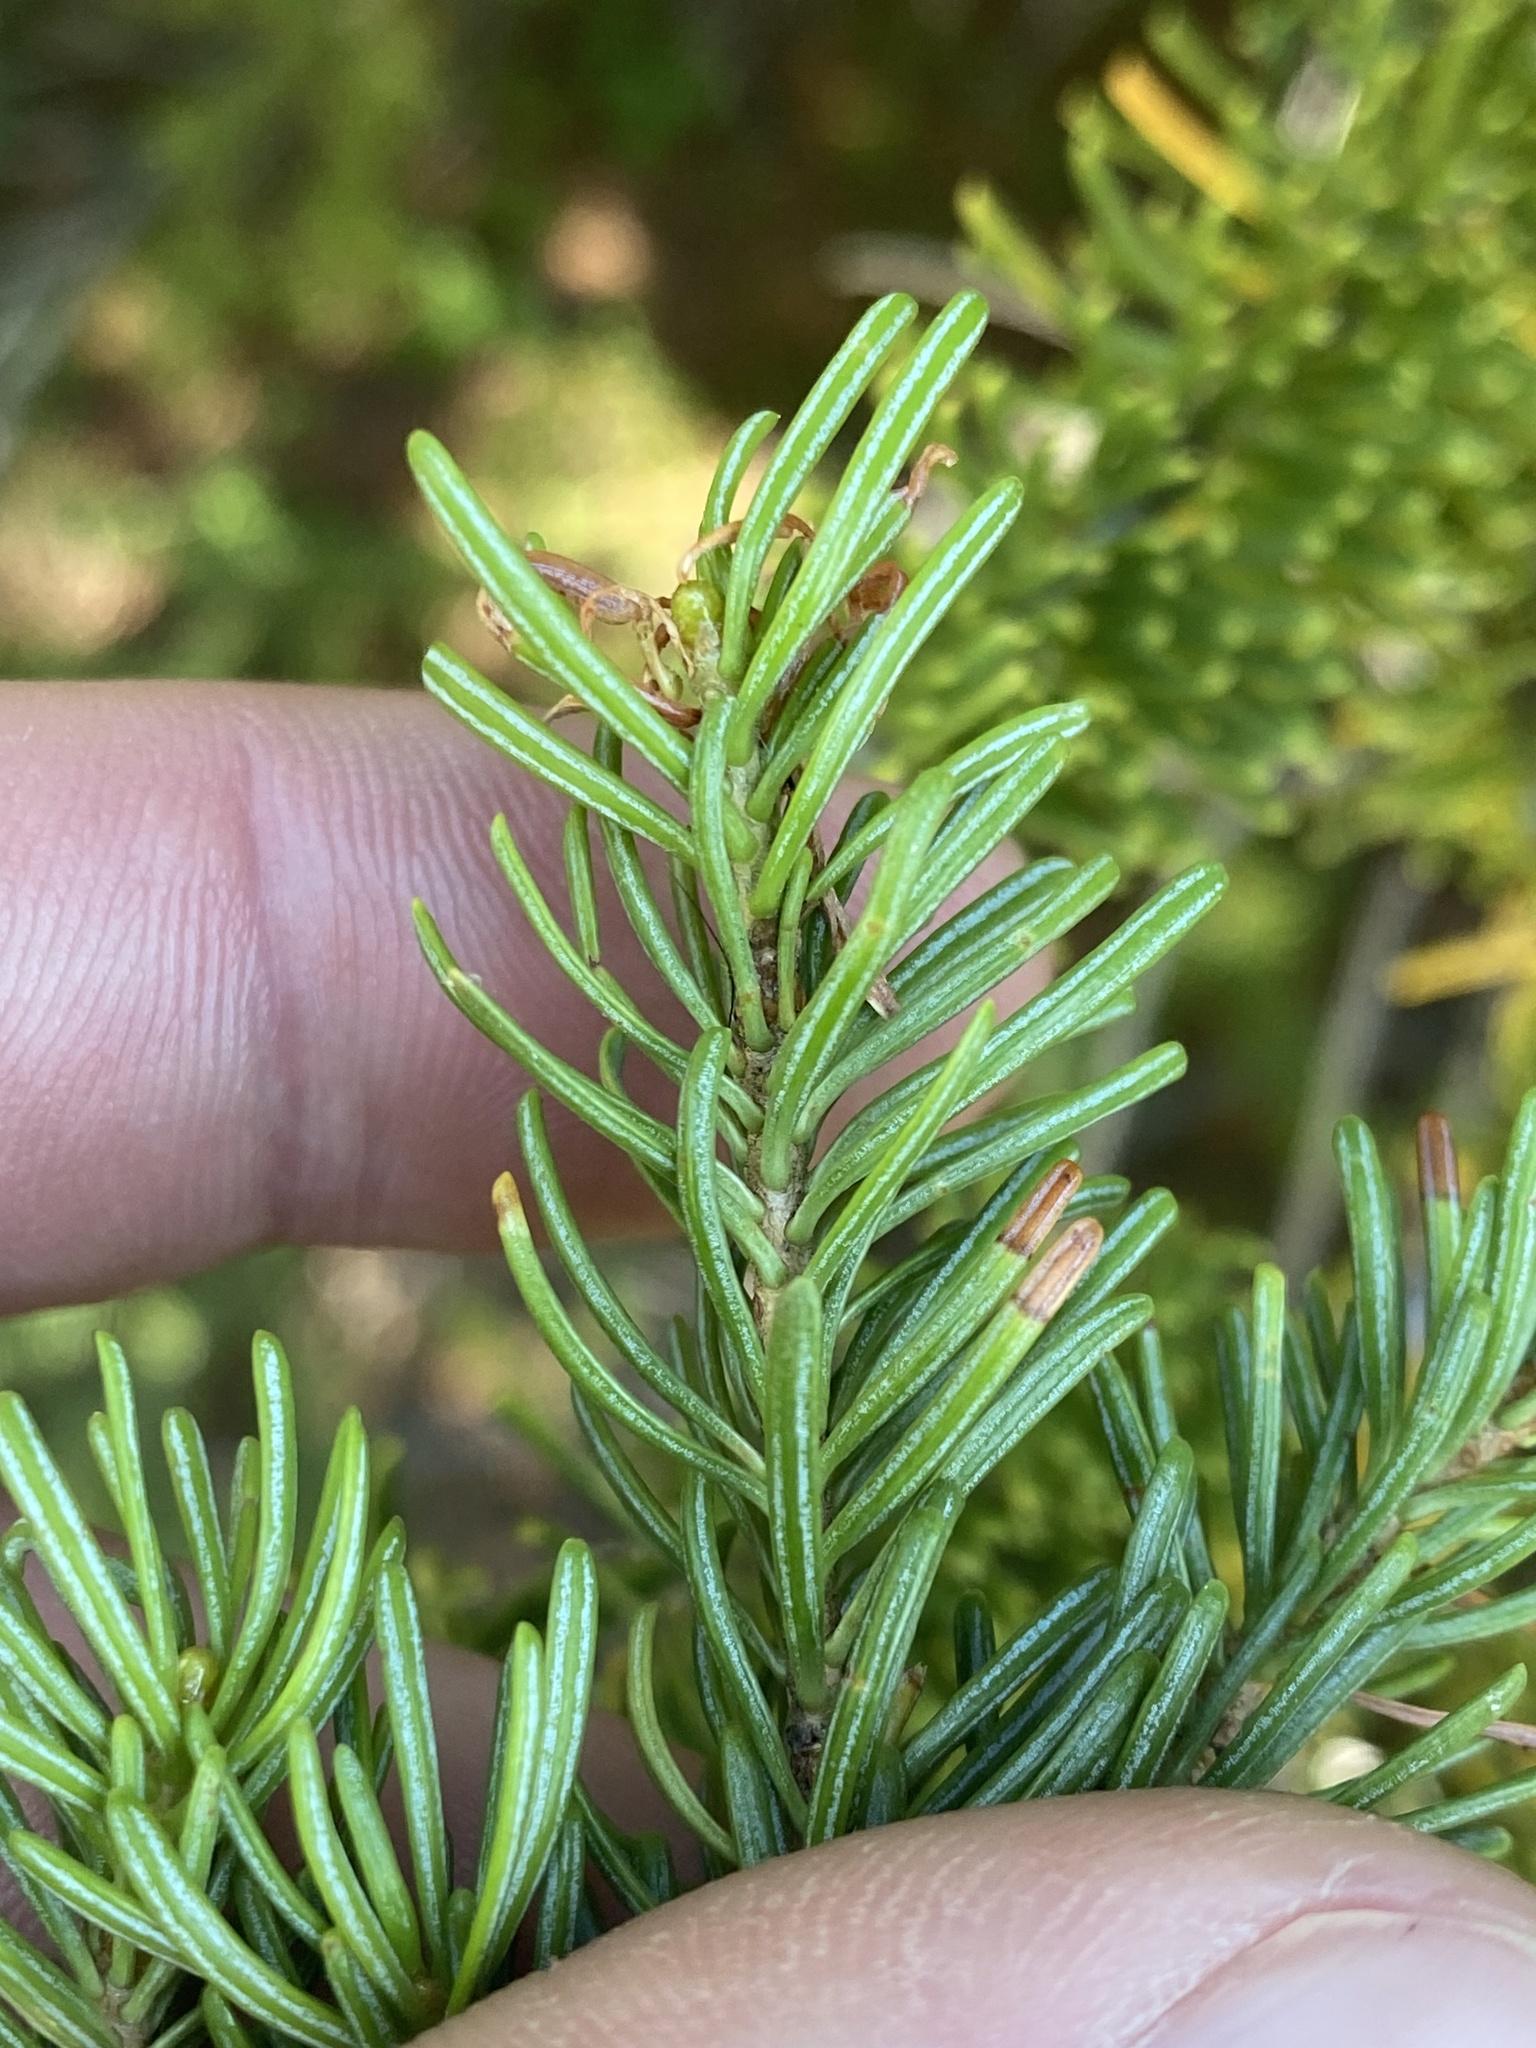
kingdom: Plantae
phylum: Tracheophyta
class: Pinopsida
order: Pinales
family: Pinaceae
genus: Abies
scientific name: Abies lasiocarpa
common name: Subalpine fir
